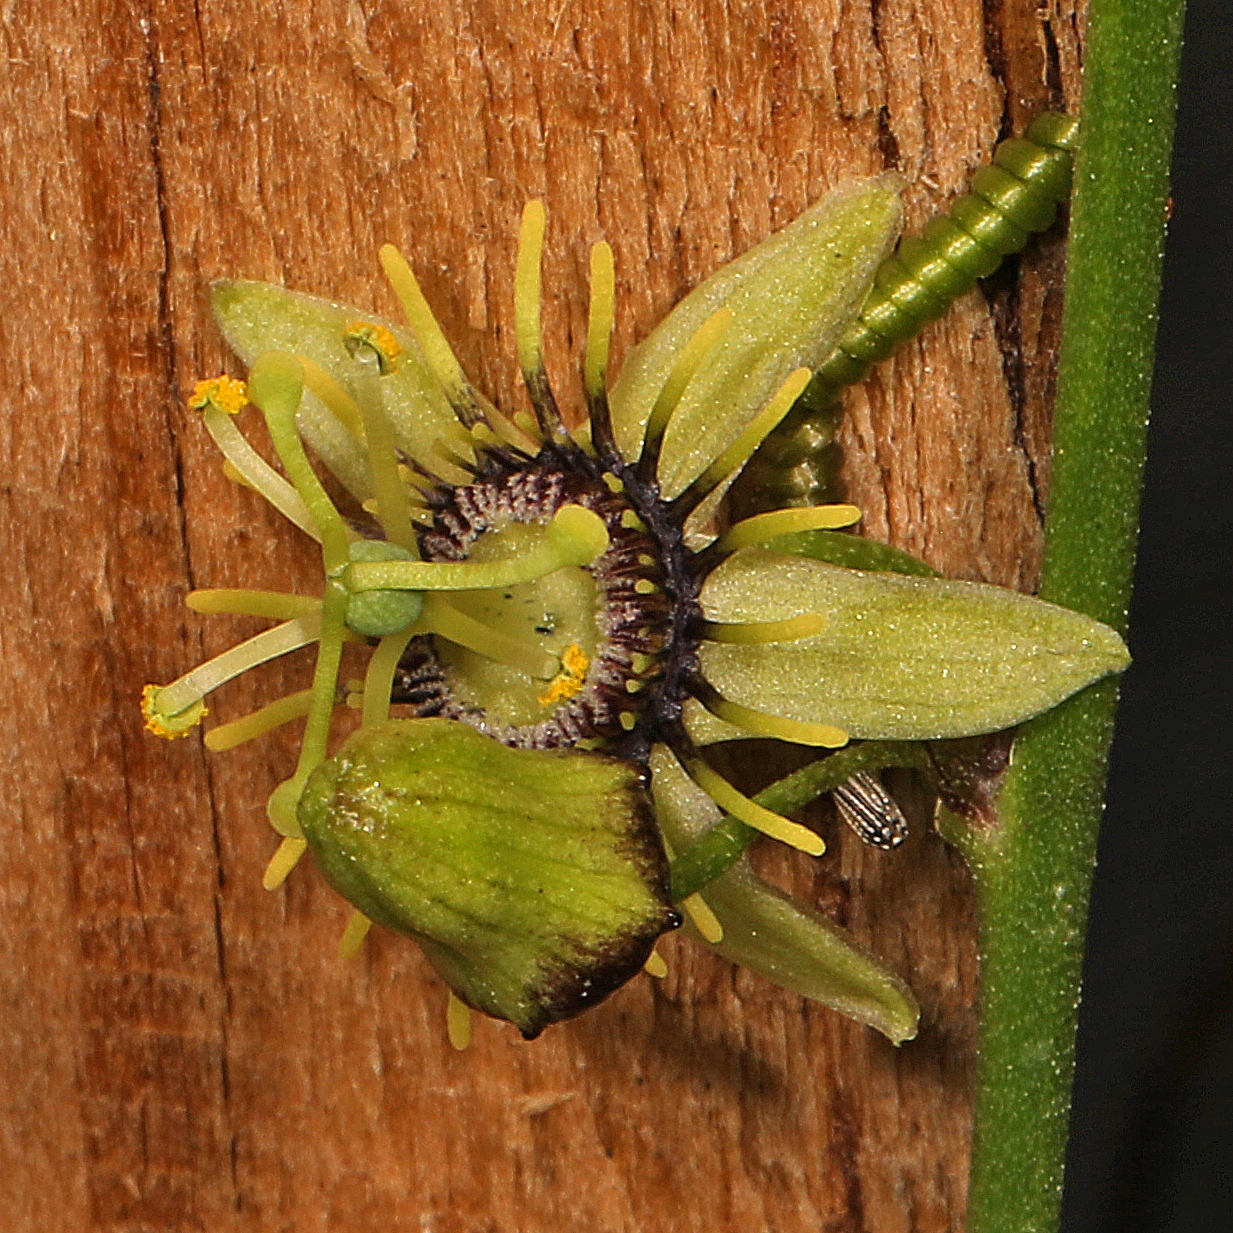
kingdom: Plantae
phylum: Tracheophyta
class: Magnoliopsida
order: Malpighiales
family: Passifloraceae
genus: Passiflora
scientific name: Passiflora pallida
